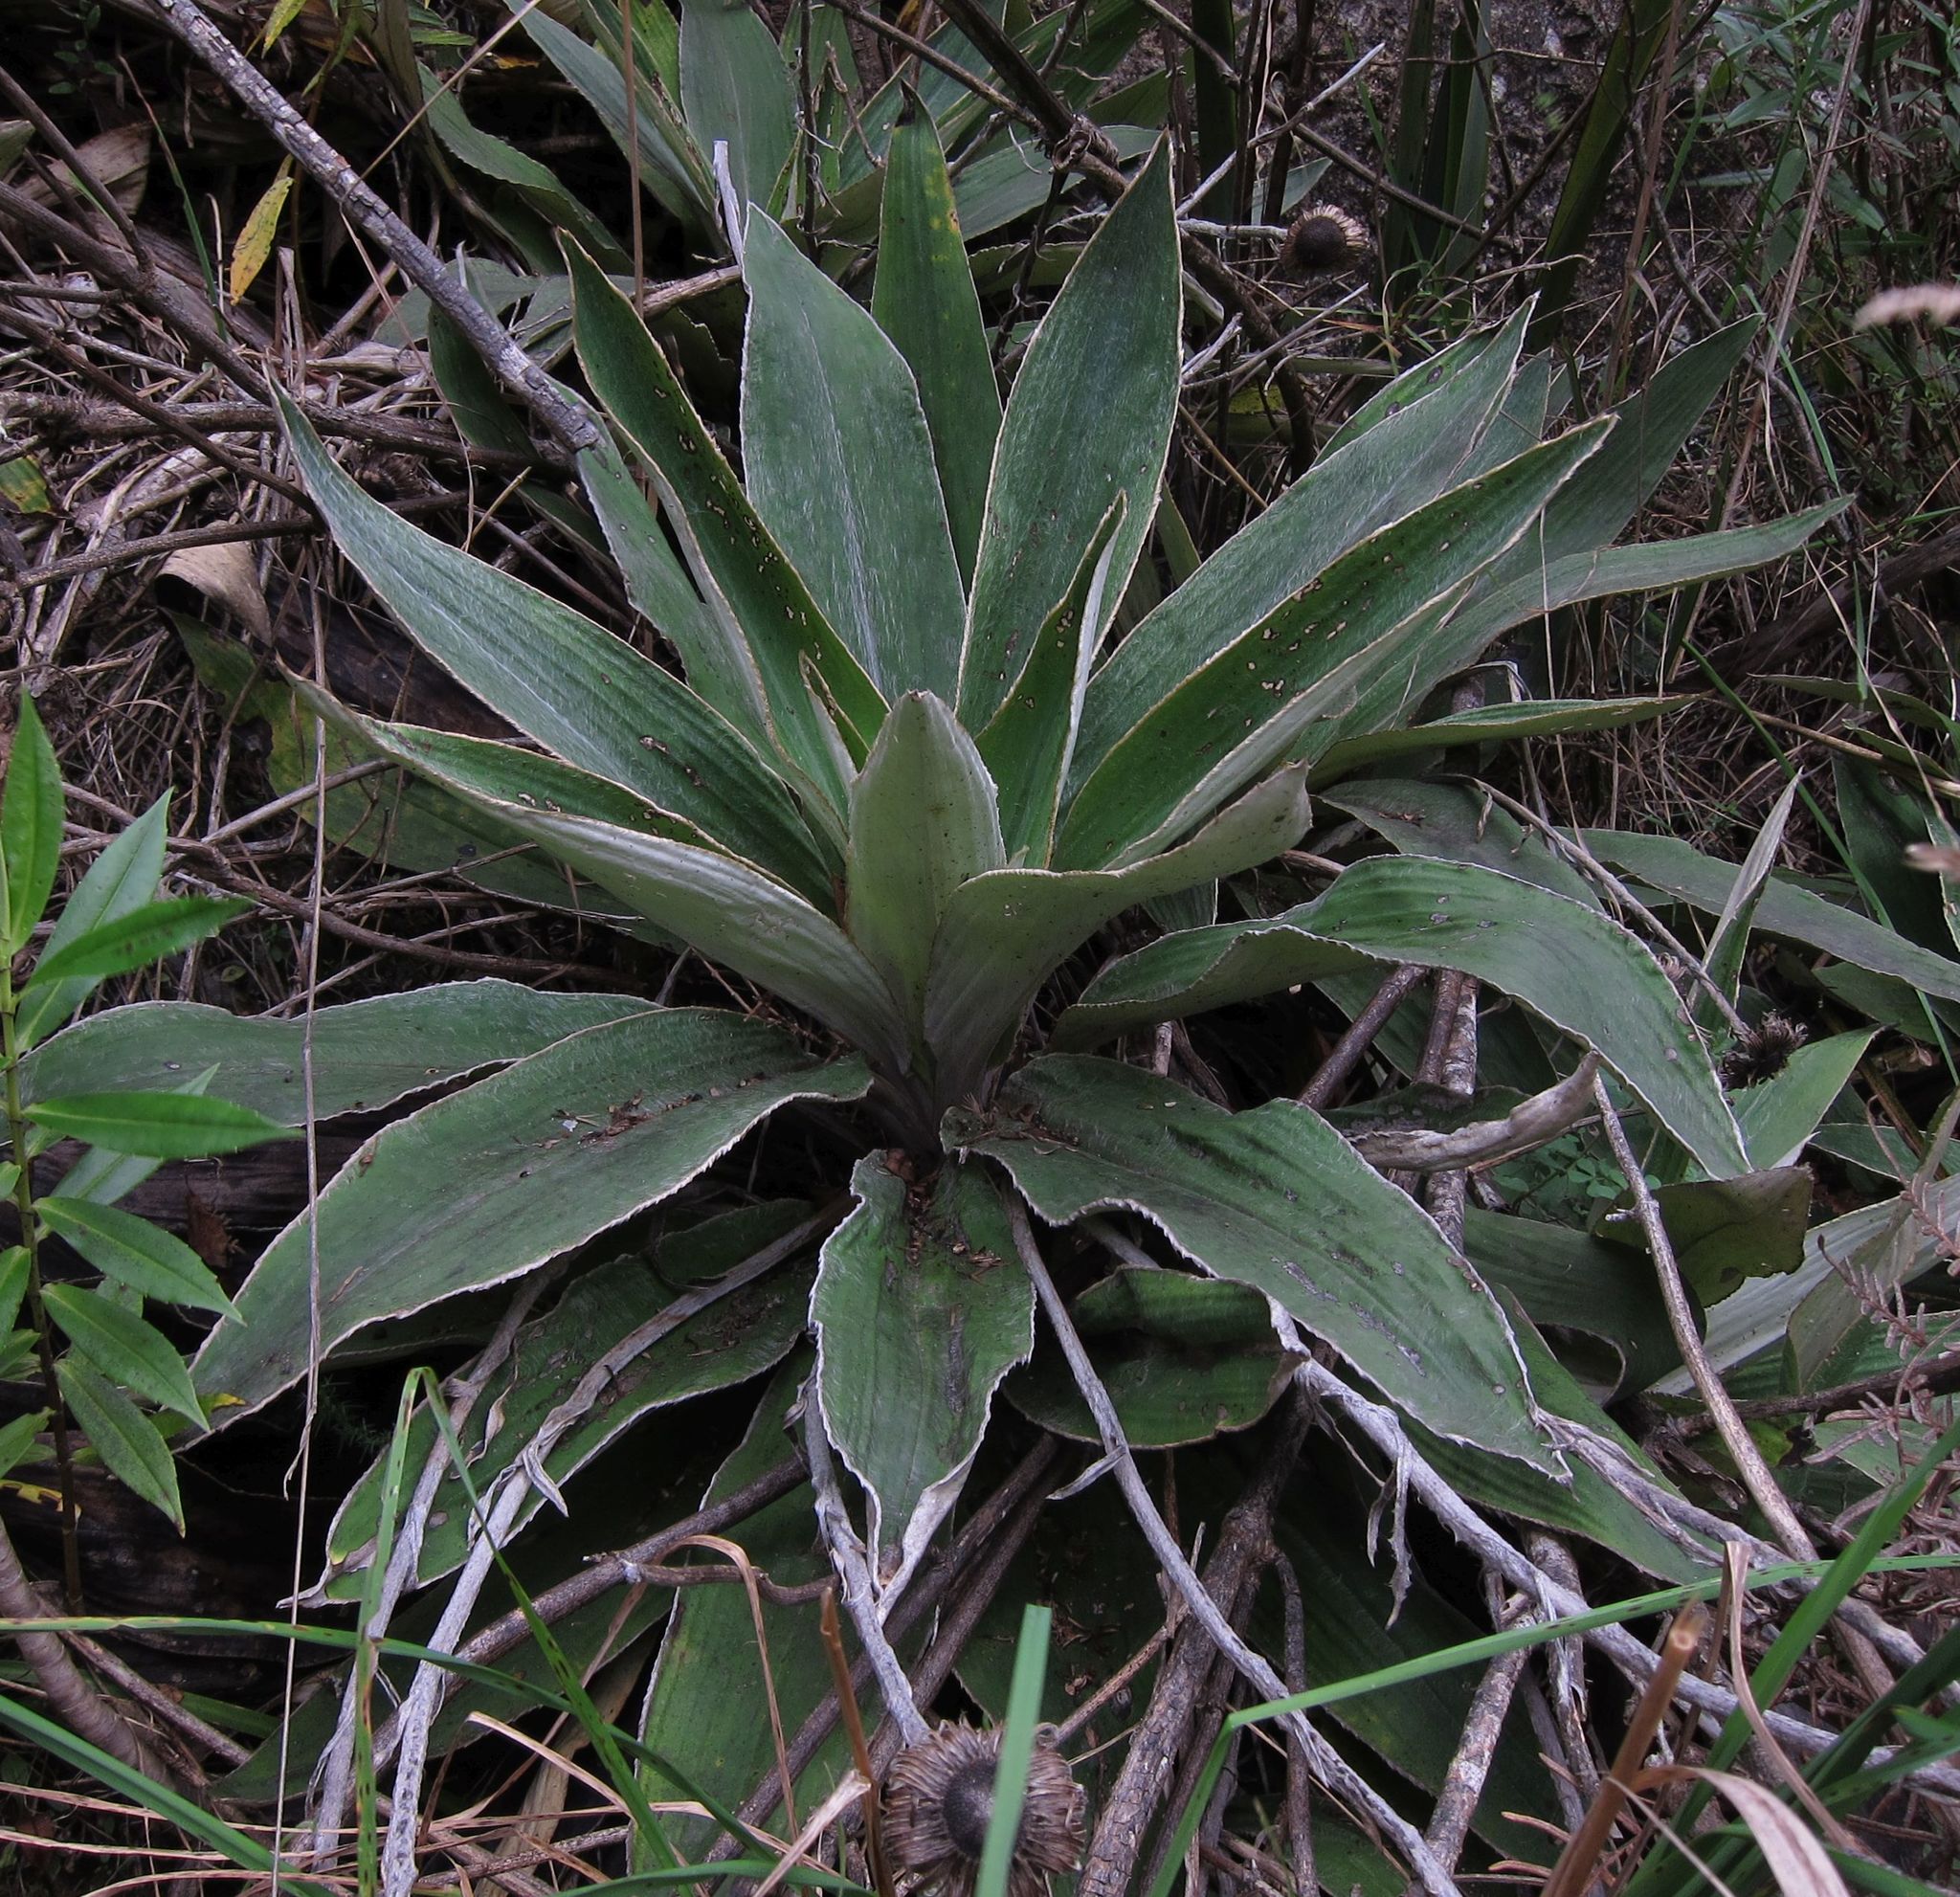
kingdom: Plantae
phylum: Tracheophyta
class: Magnoliopsida
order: Asterales
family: Asteraceae
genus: Celmisia
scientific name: Celmisia hookeri
